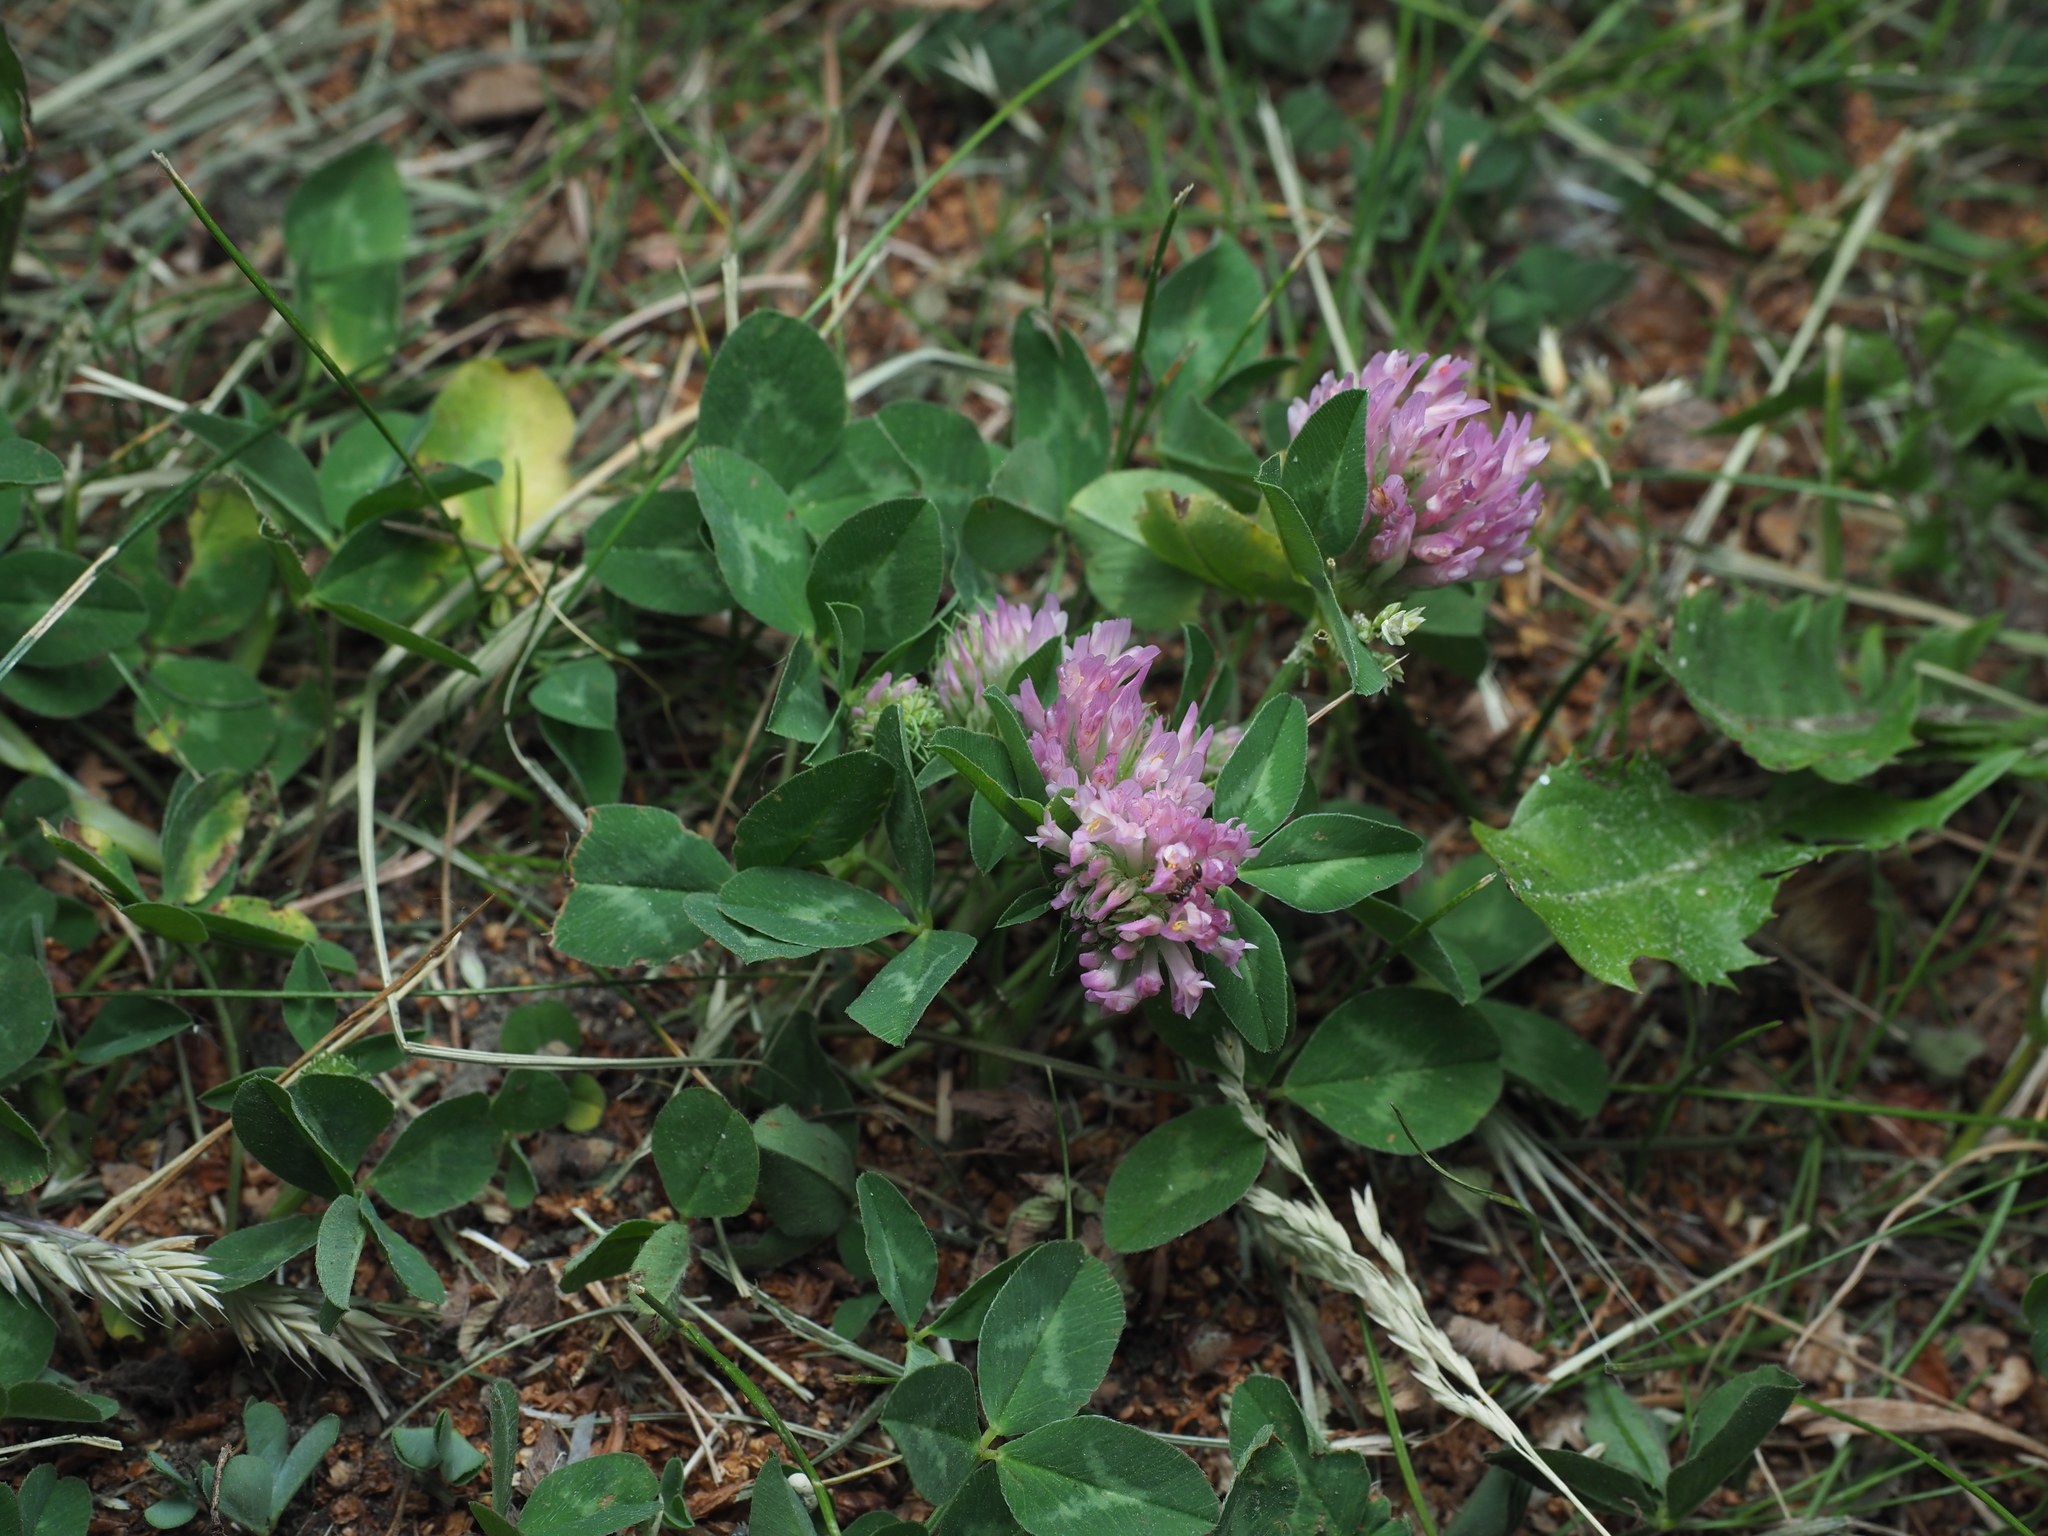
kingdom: Plantae
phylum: Tracheophyta
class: Magnoliopsida
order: Fabales
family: Fabaceae
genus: Trifolium
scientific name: Trifolium pratense
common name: Red clover
